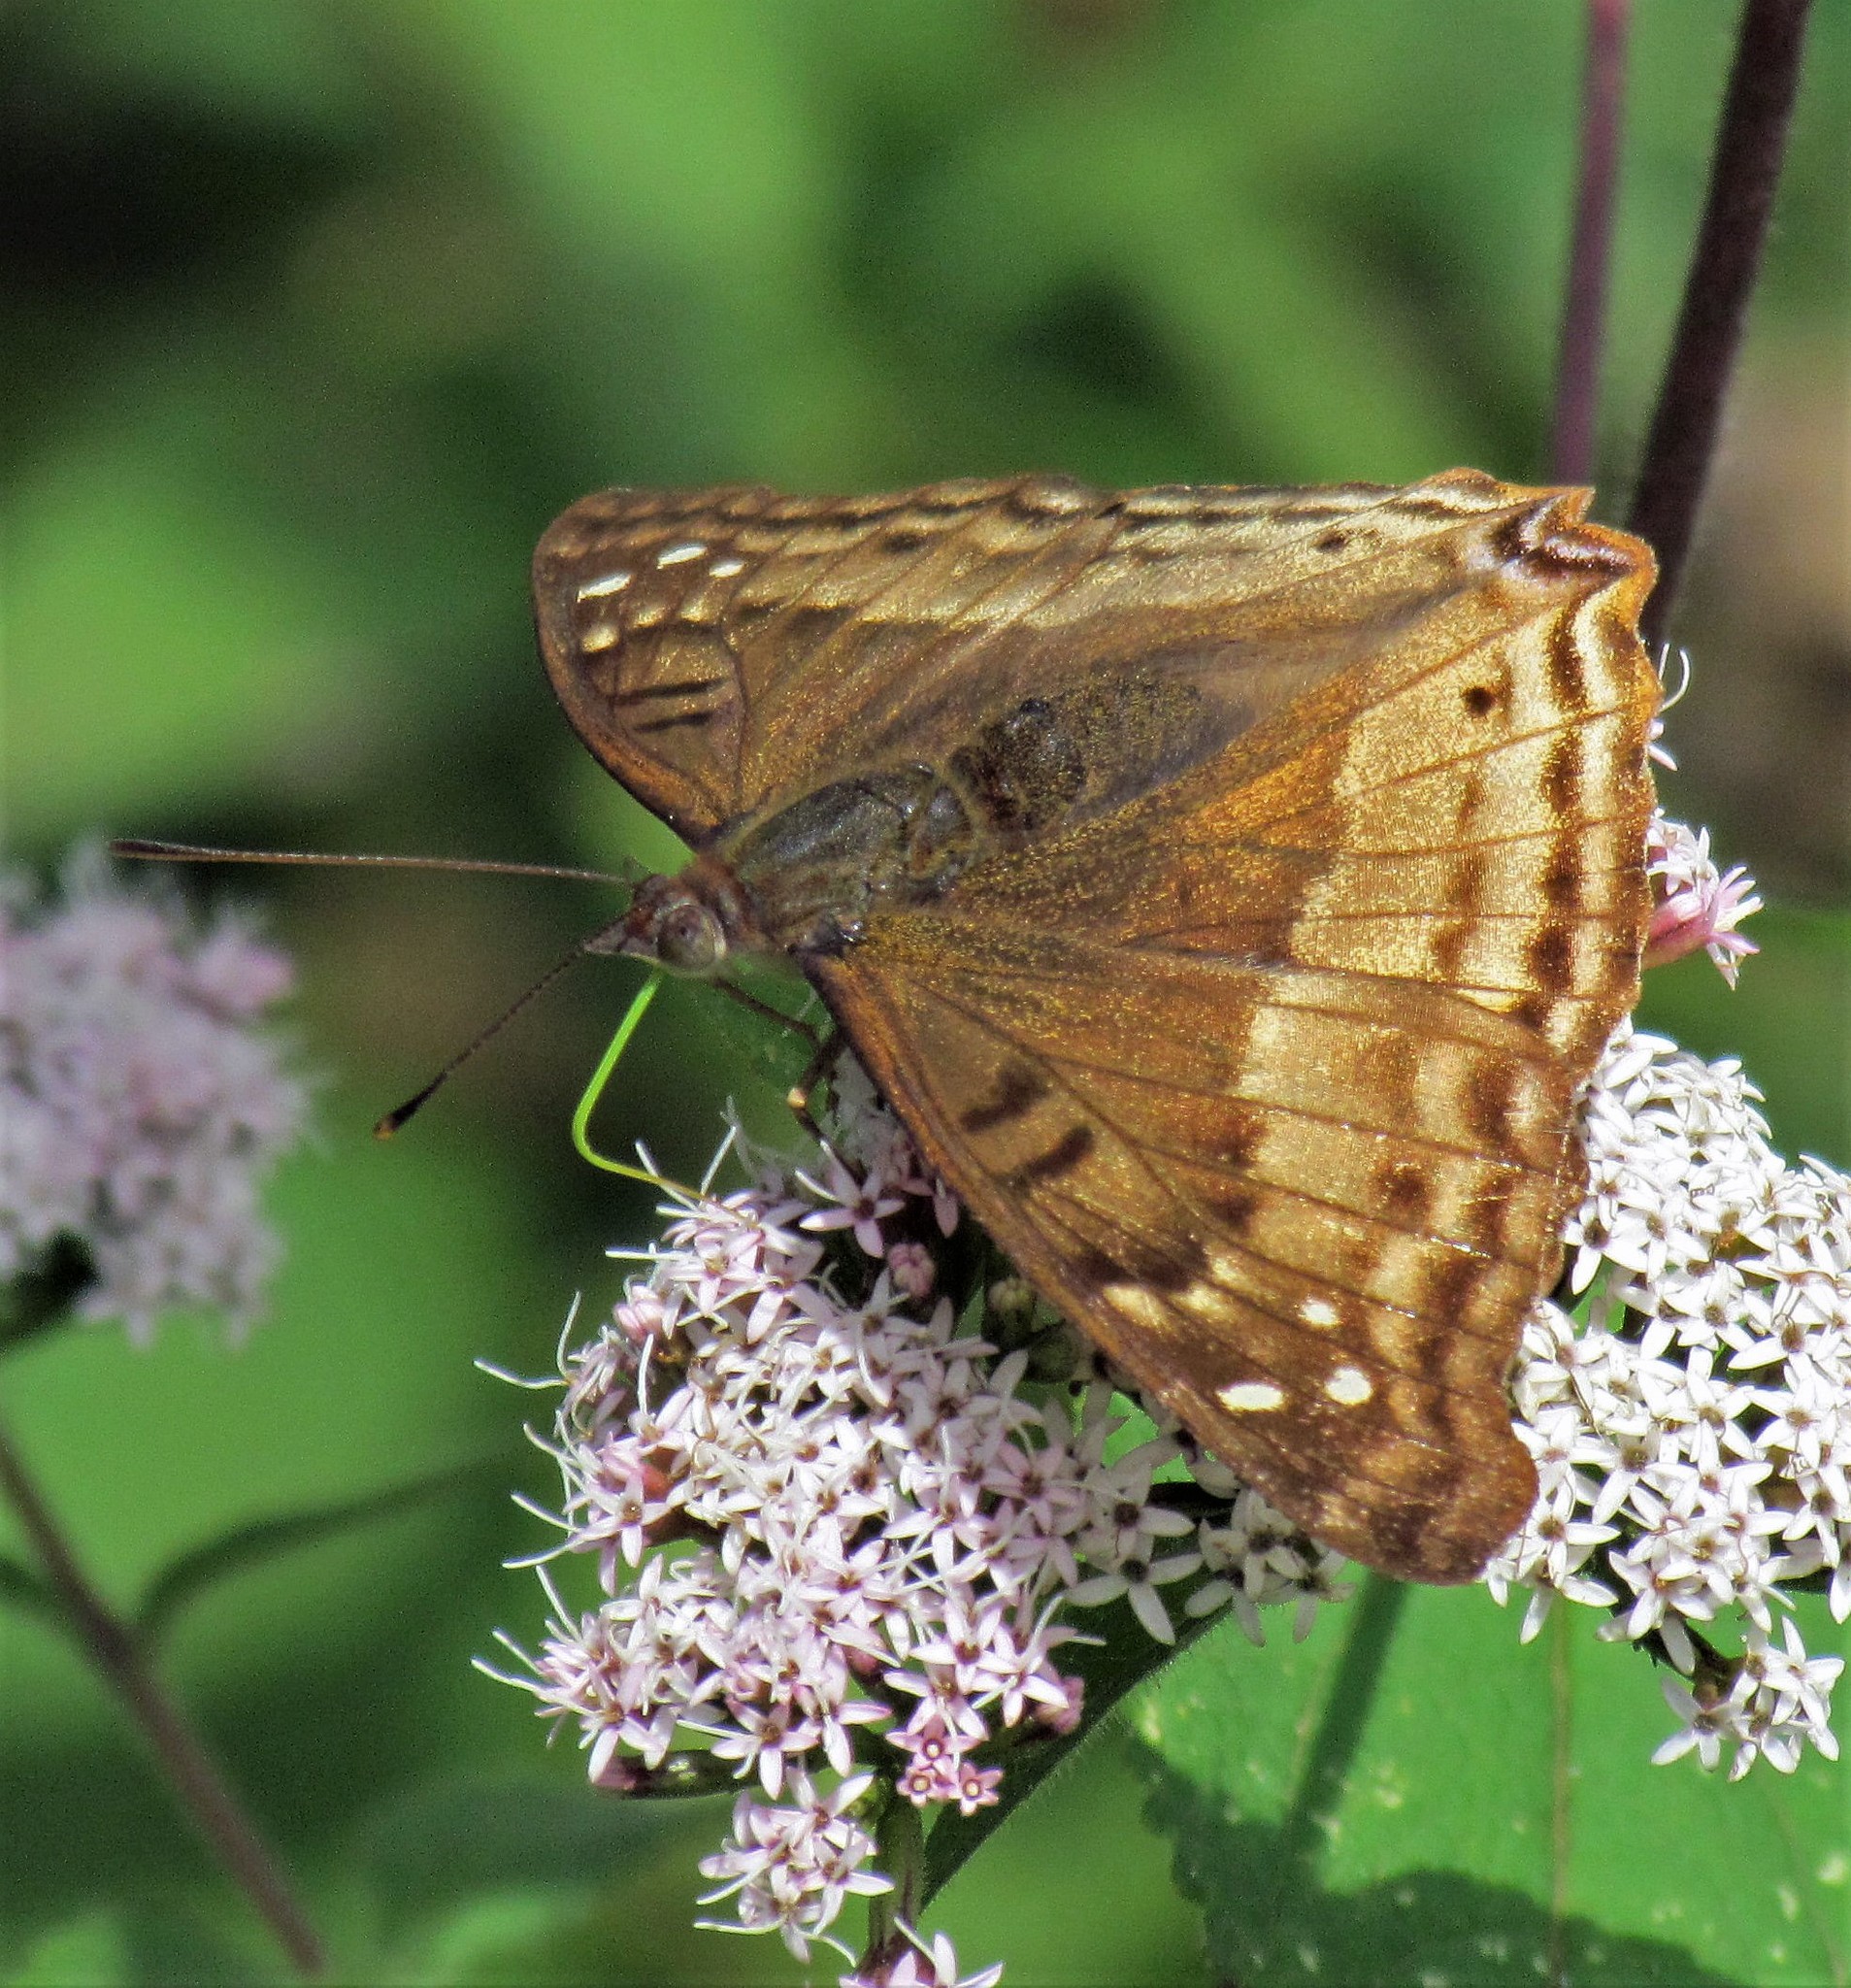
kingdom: Animalia
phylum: Arthropoda
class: Insecta
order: Lepidoptera
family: Nymphalidae
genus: Doxocopa
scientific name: Doxocopa cyane
